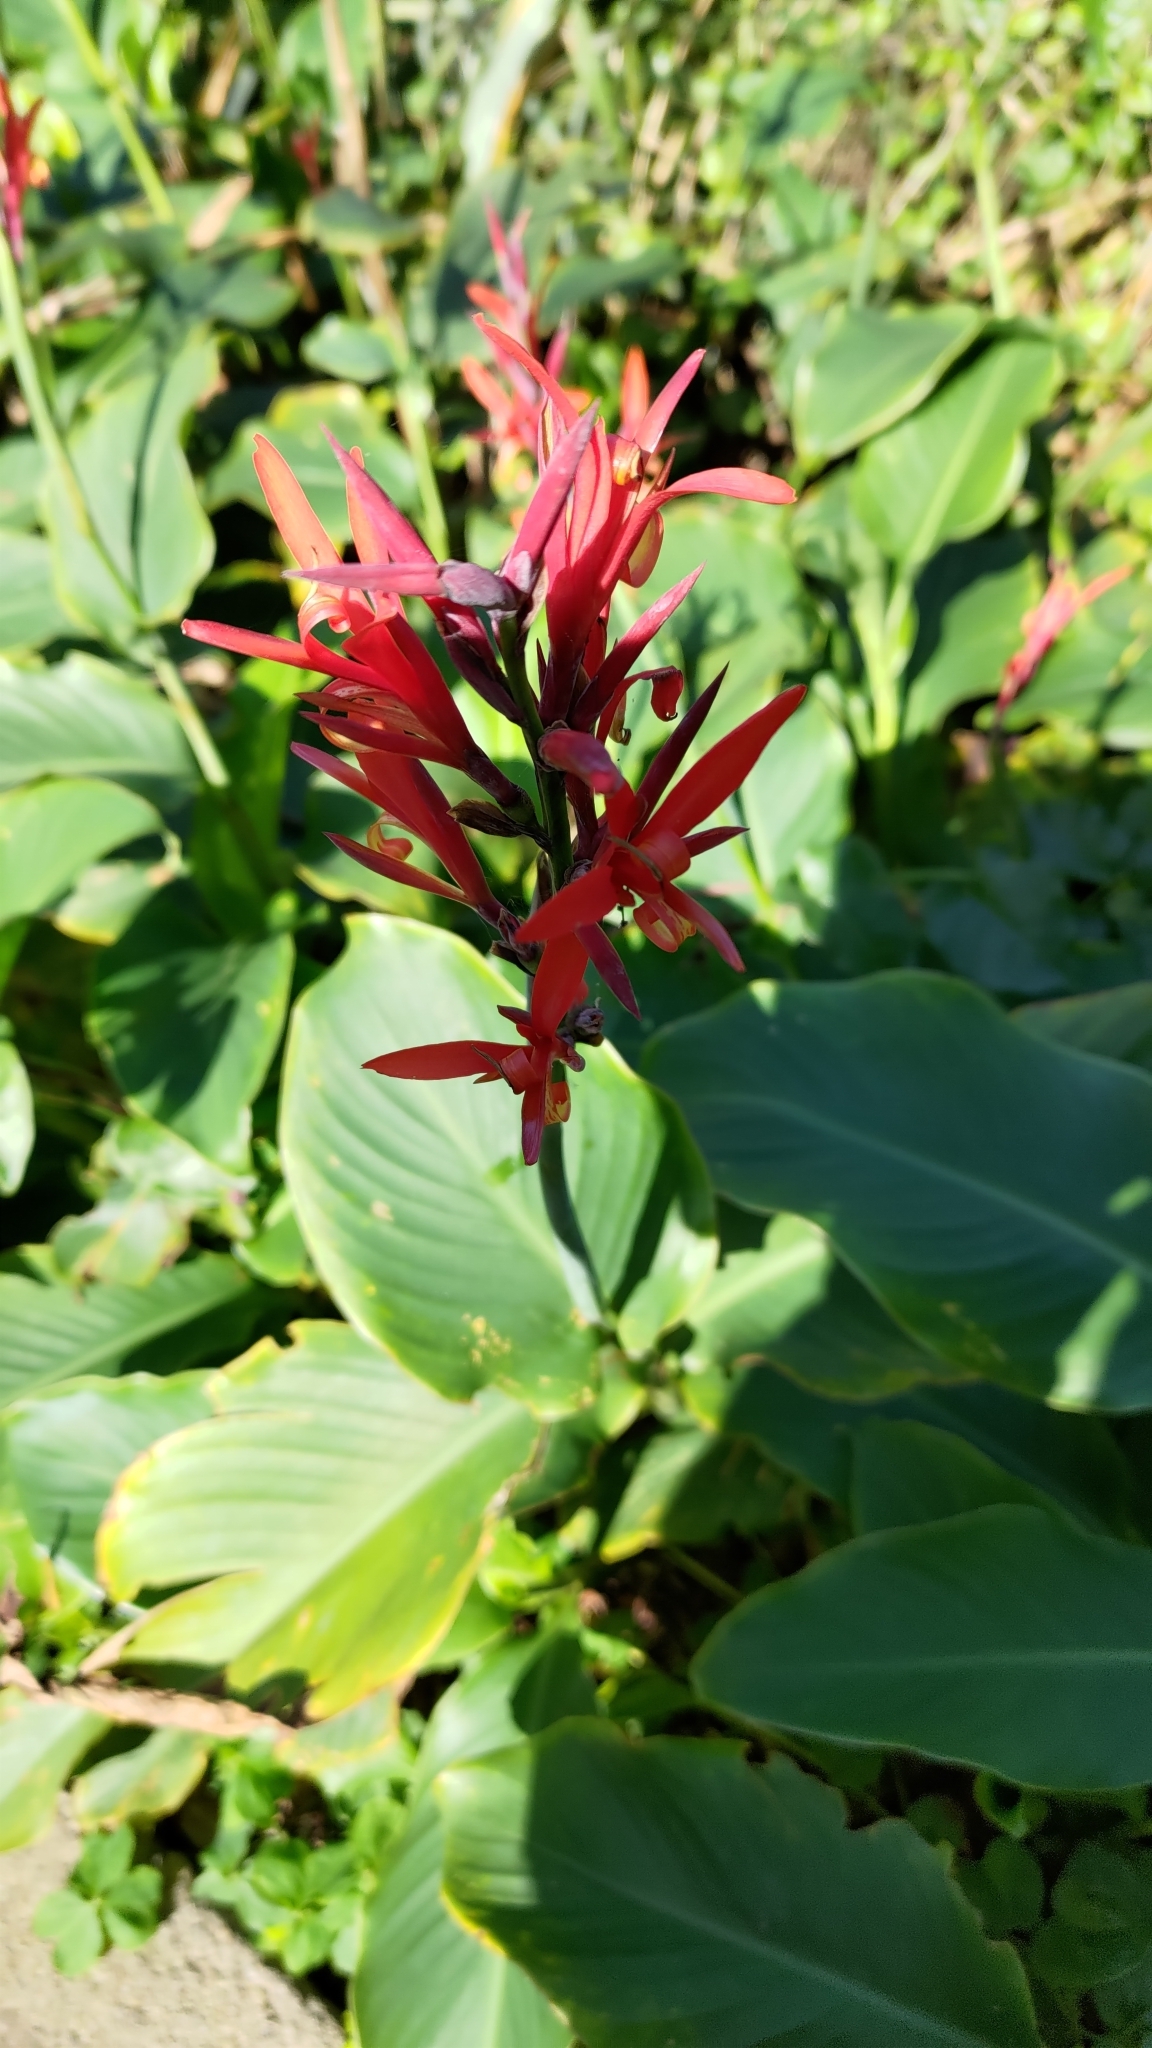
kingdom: Plantae
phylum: Tracheophyta
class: Liliopsida
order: Zingiberales
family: Cannaceae
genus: Canna
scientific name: Canna indica
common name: Indian shot
